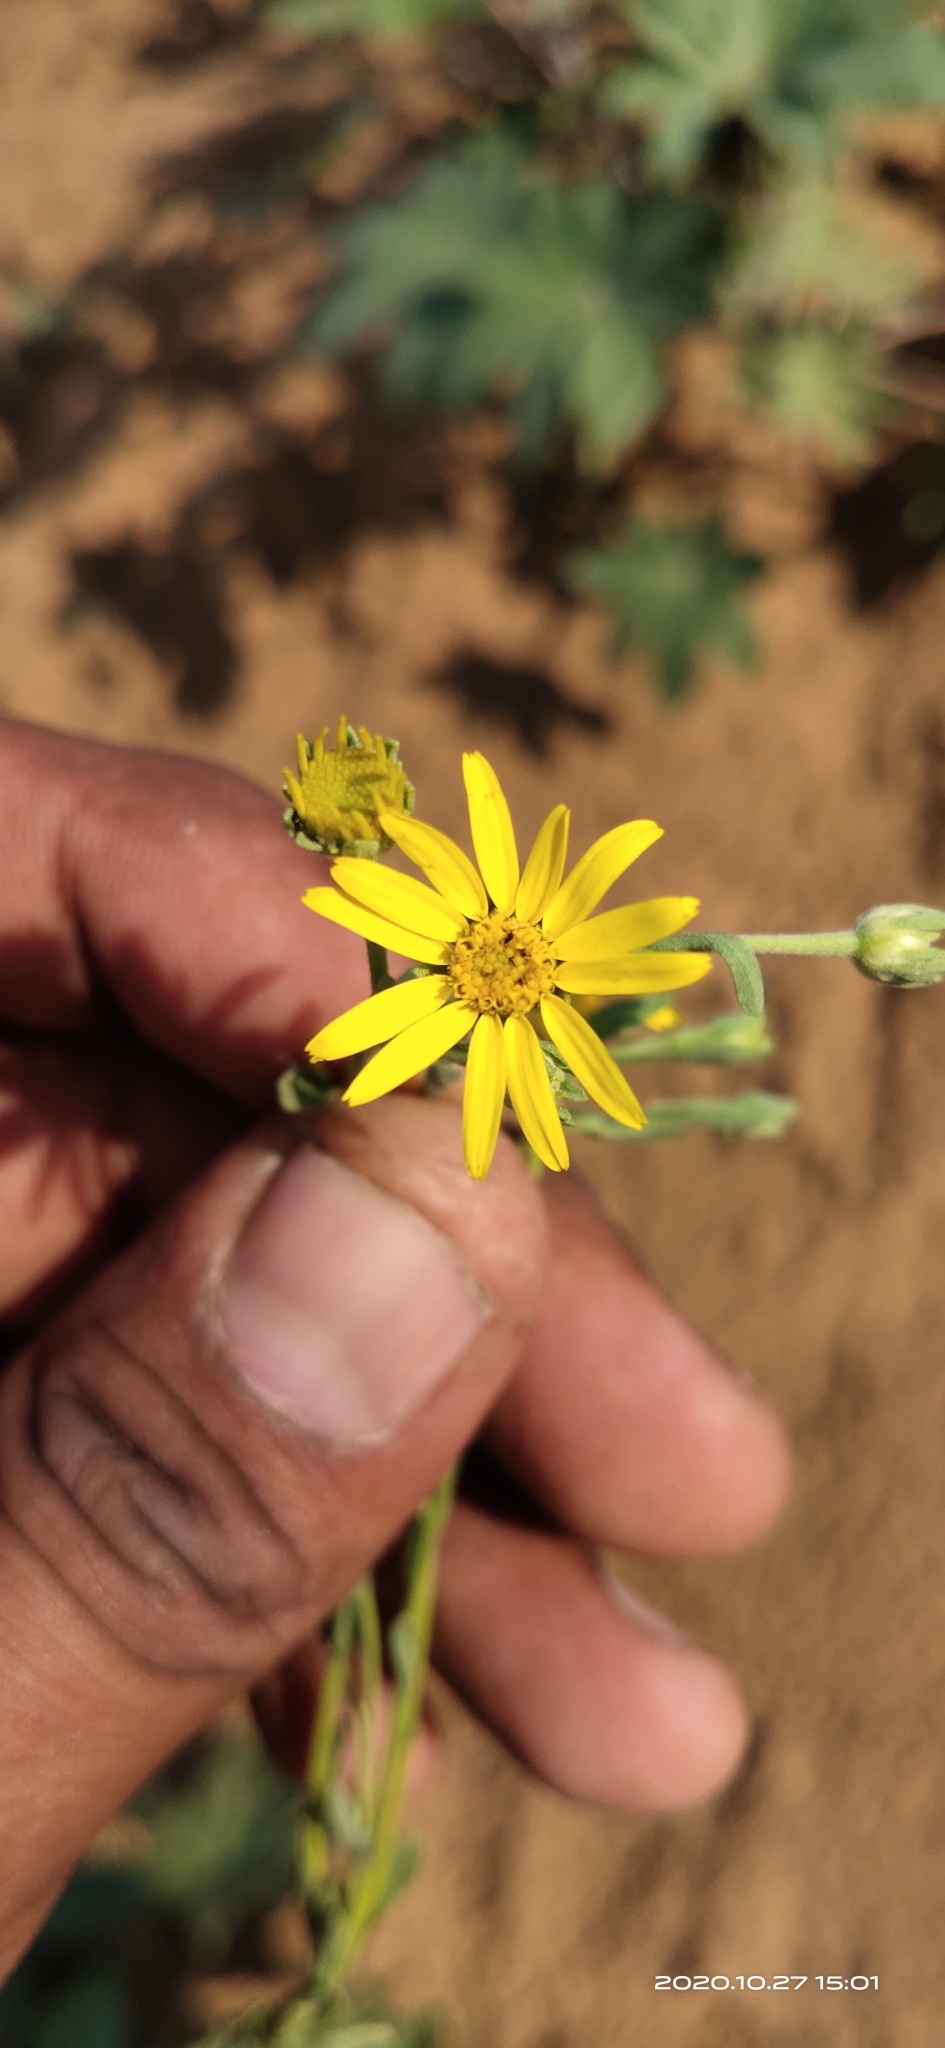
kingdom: Plantae
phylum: Tracheophyta
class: Magnoliopsida
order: Asterales
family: Asteraceae
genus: Sphagneticola
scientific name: Sphagneticola trilobata
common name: Bay biscayne creeping-oxeye
